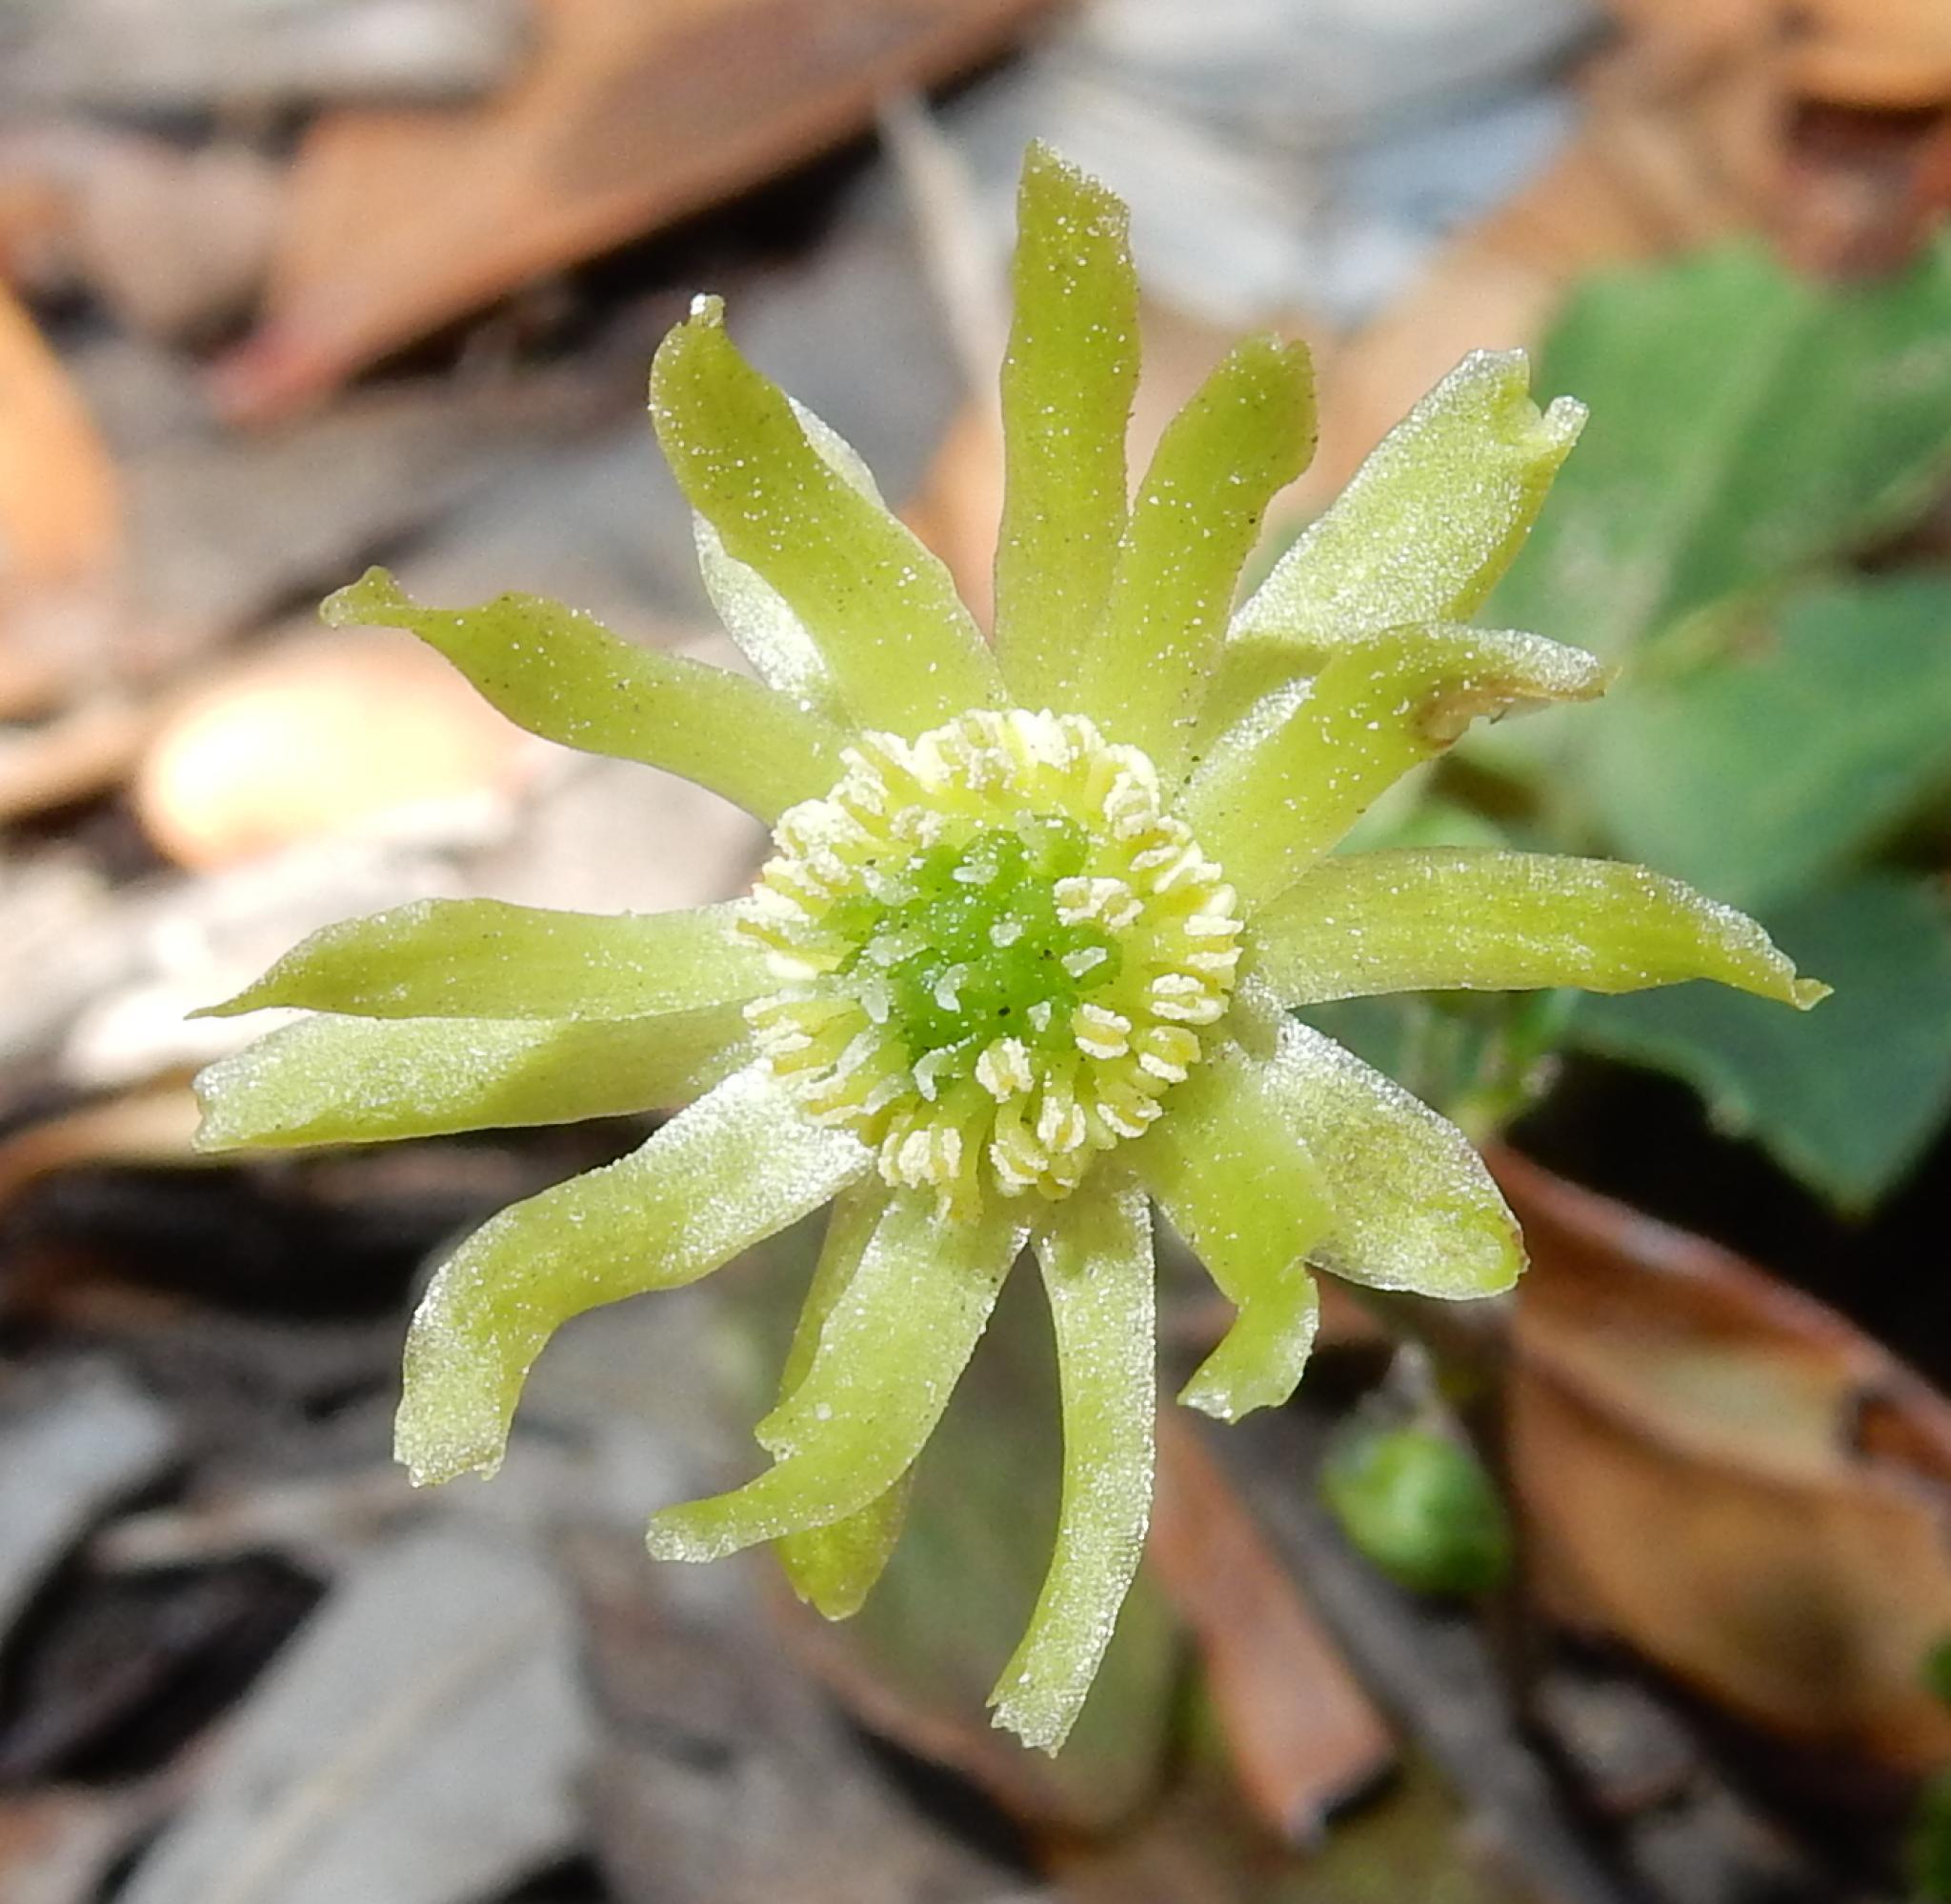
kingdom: Plantae
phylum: Tracheophyta
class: Magnoliopsida
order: Ranunculales
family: Ranunculaceae
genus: Knowltonia
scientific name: Knowltonia vesicatoria
